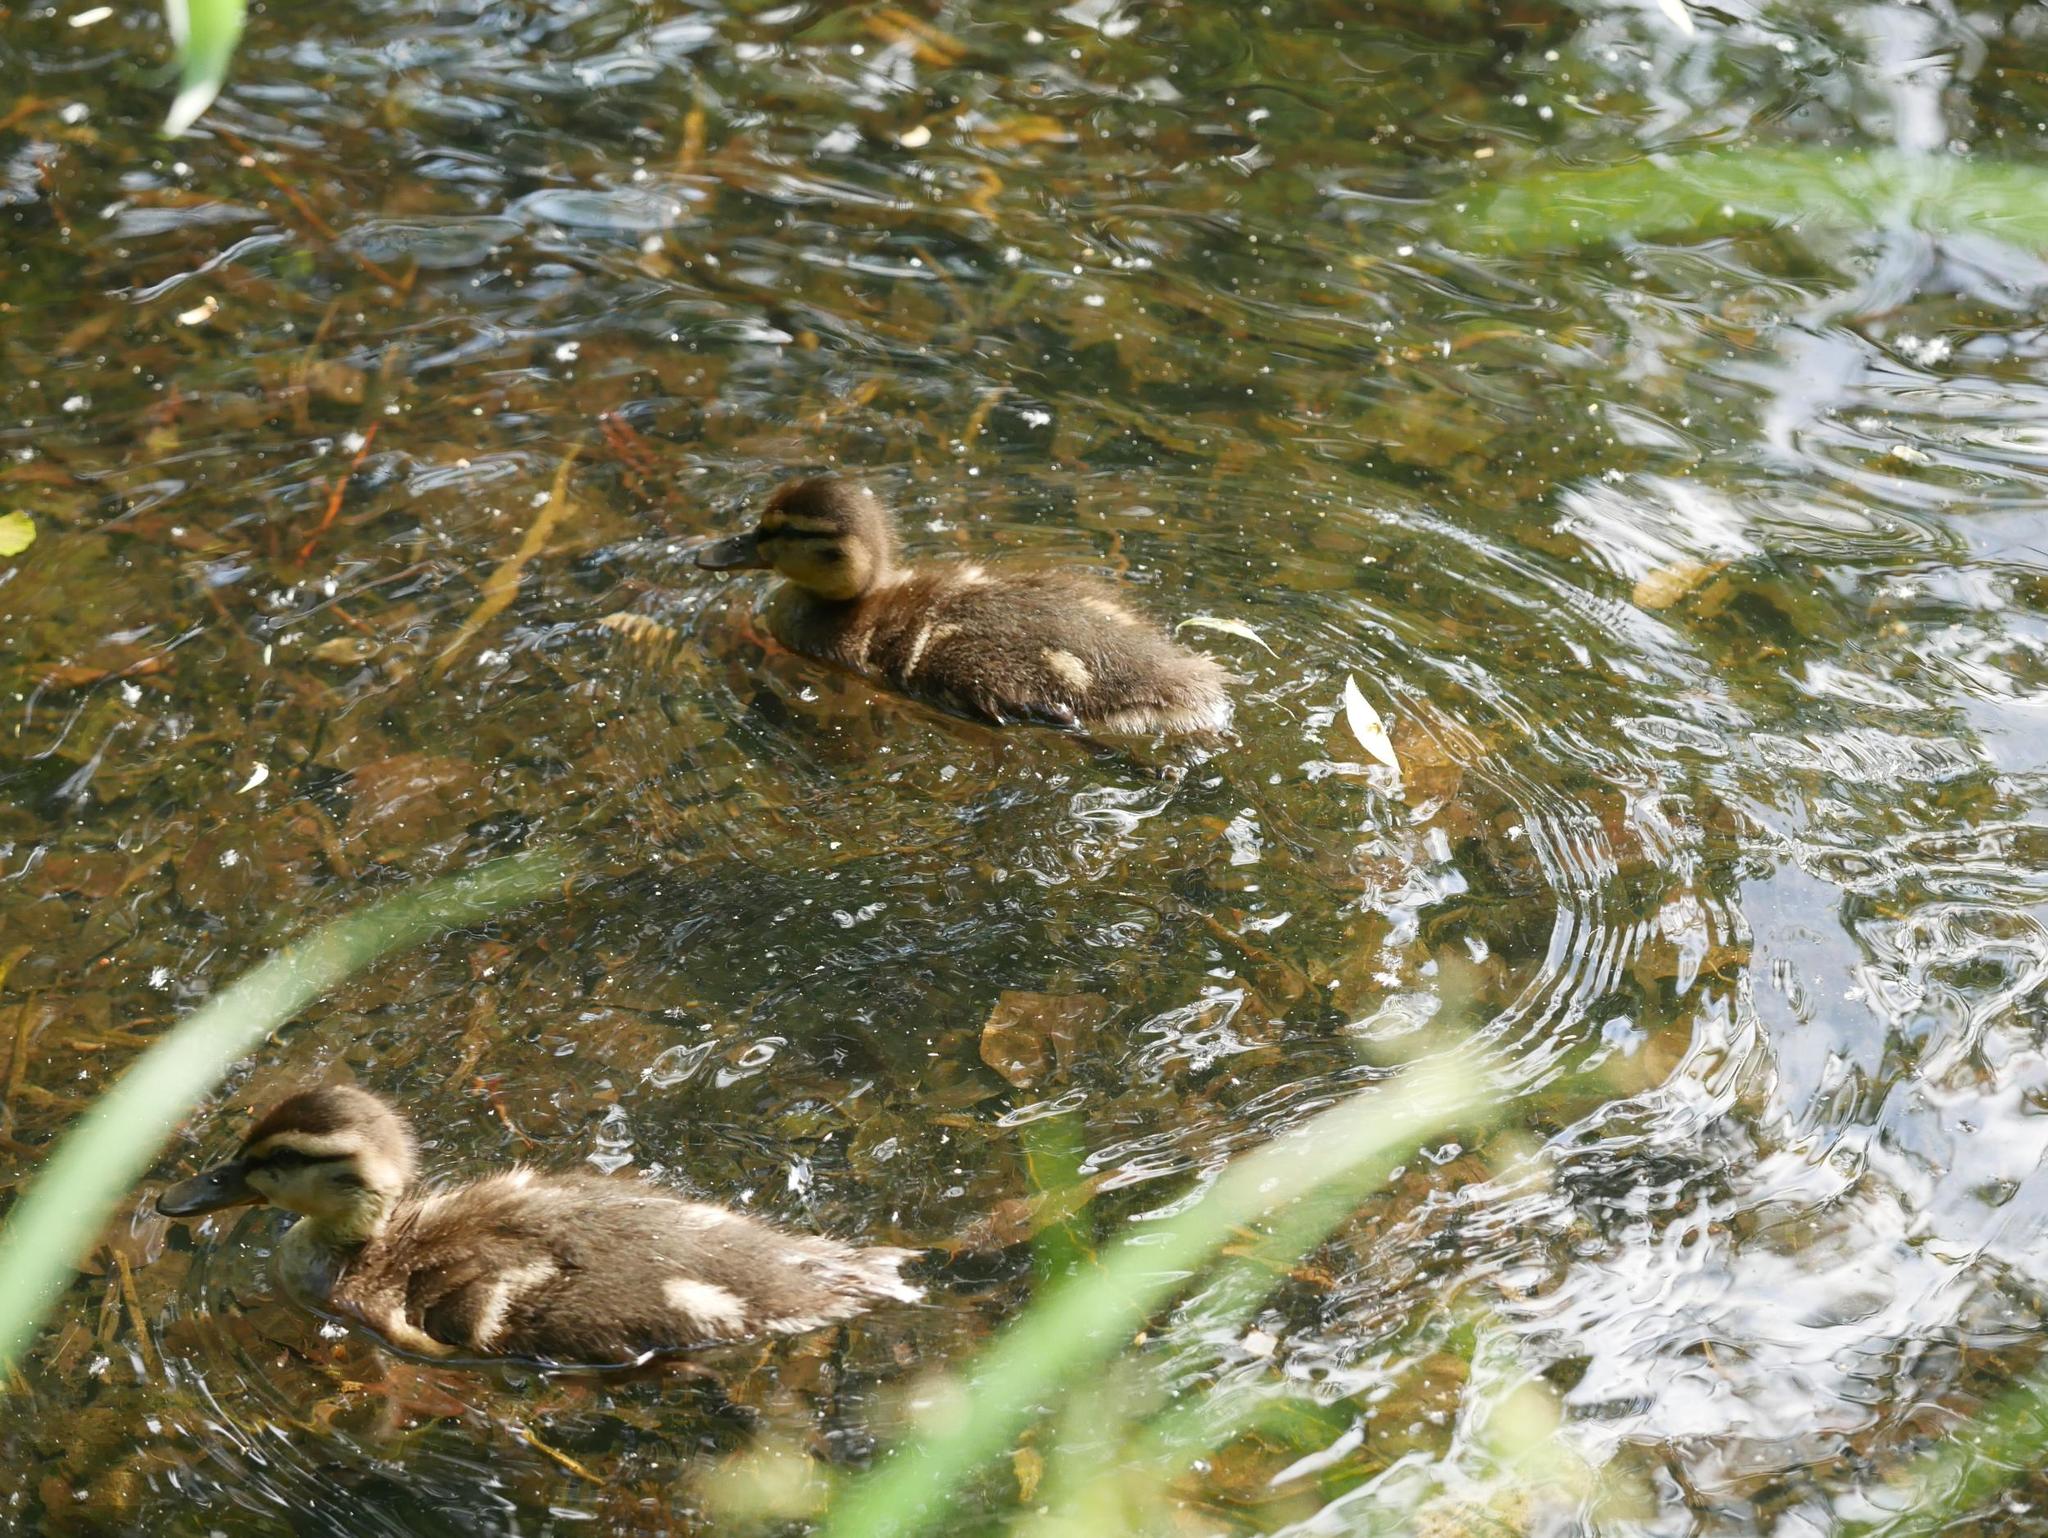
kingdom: Animalia
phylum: Chordata
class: Aves
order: Anseriformes
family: Anatidae
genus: Anas
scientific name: Anas platyrhynchos
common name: Mallard
